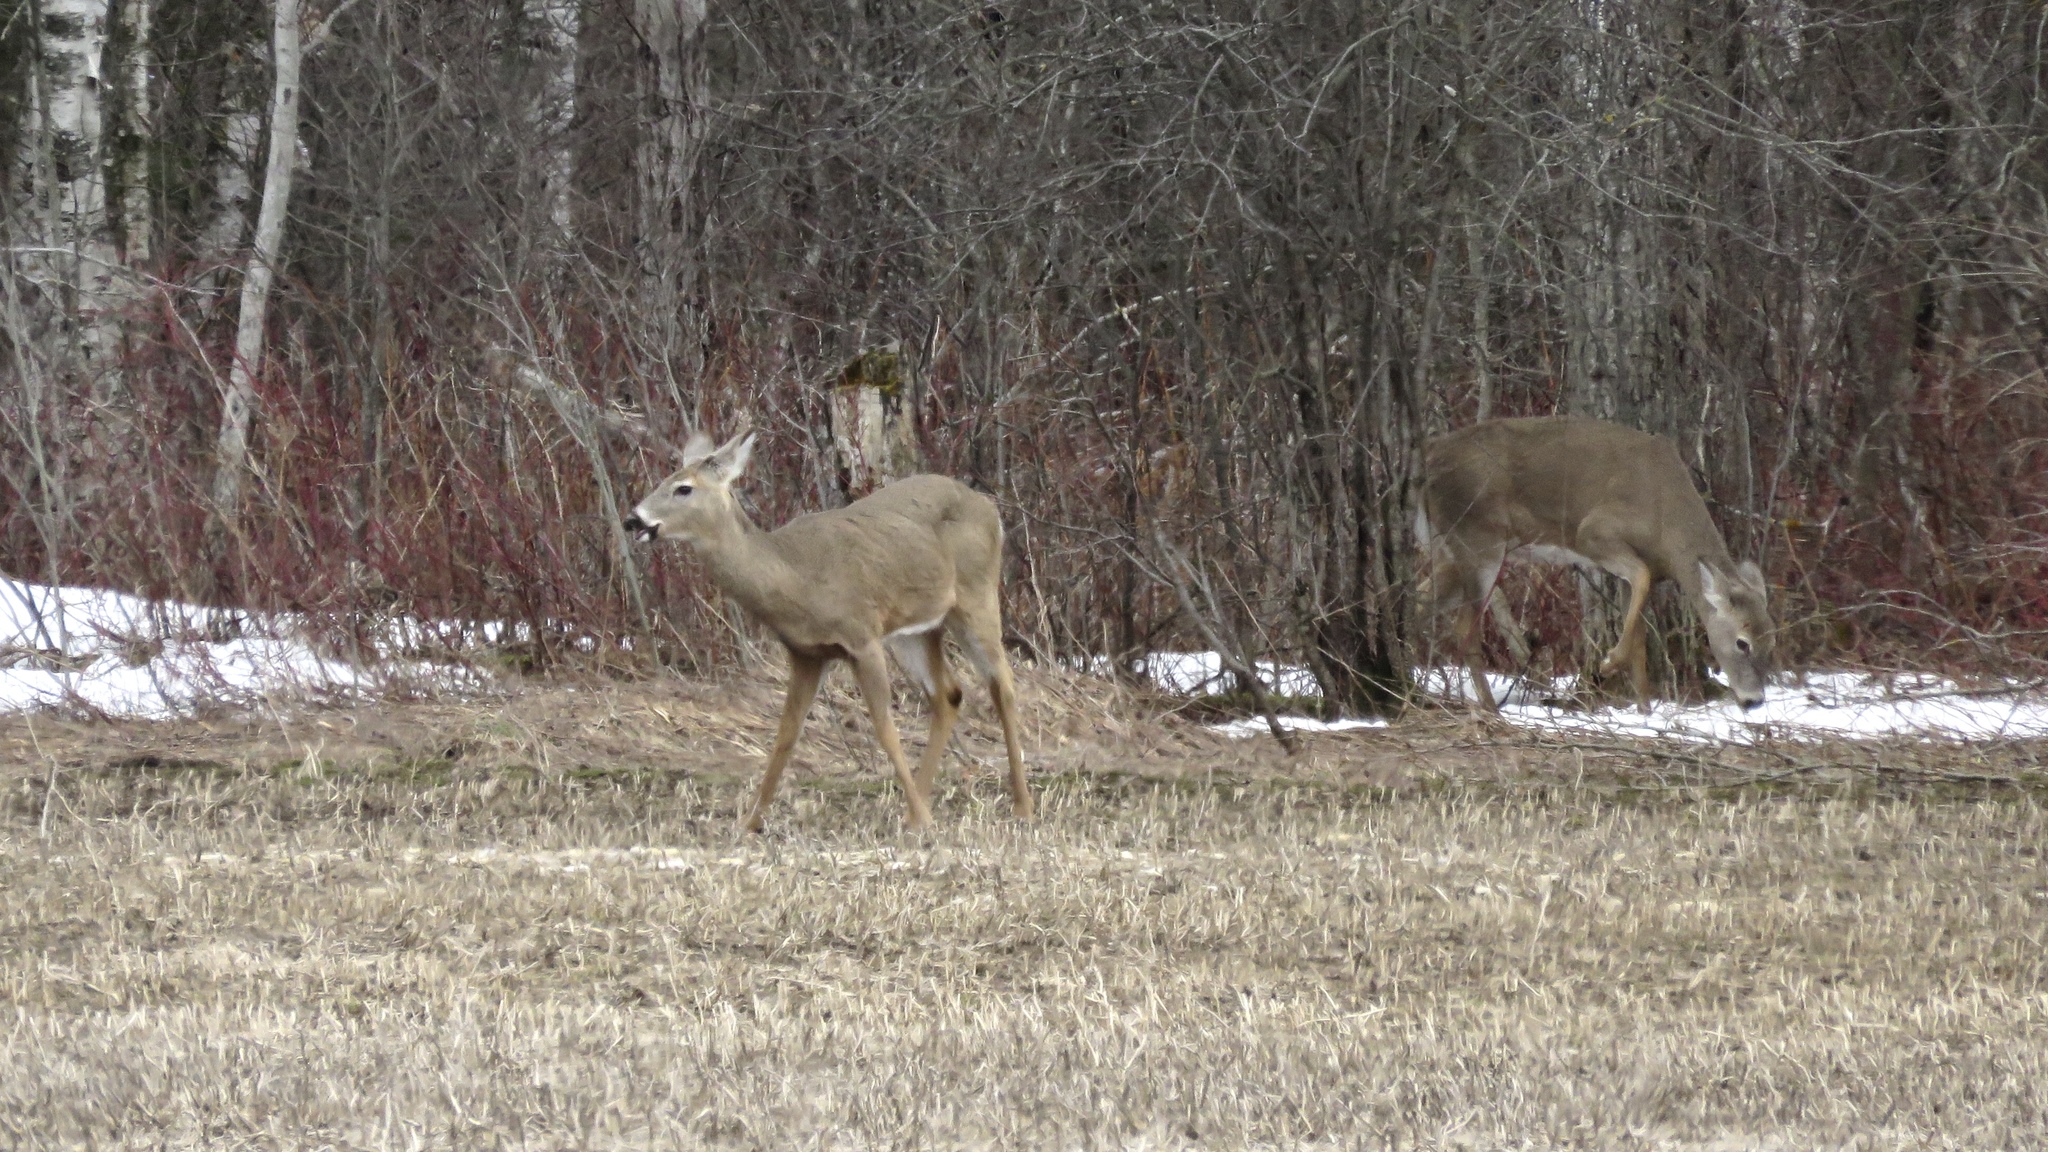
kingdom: Animalia
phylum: Chordata
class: Mammalia
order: Artiodactyla
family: Cervidae
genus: Odocoileus
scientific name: Odocoileus virginianus
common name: White-tailed deer
